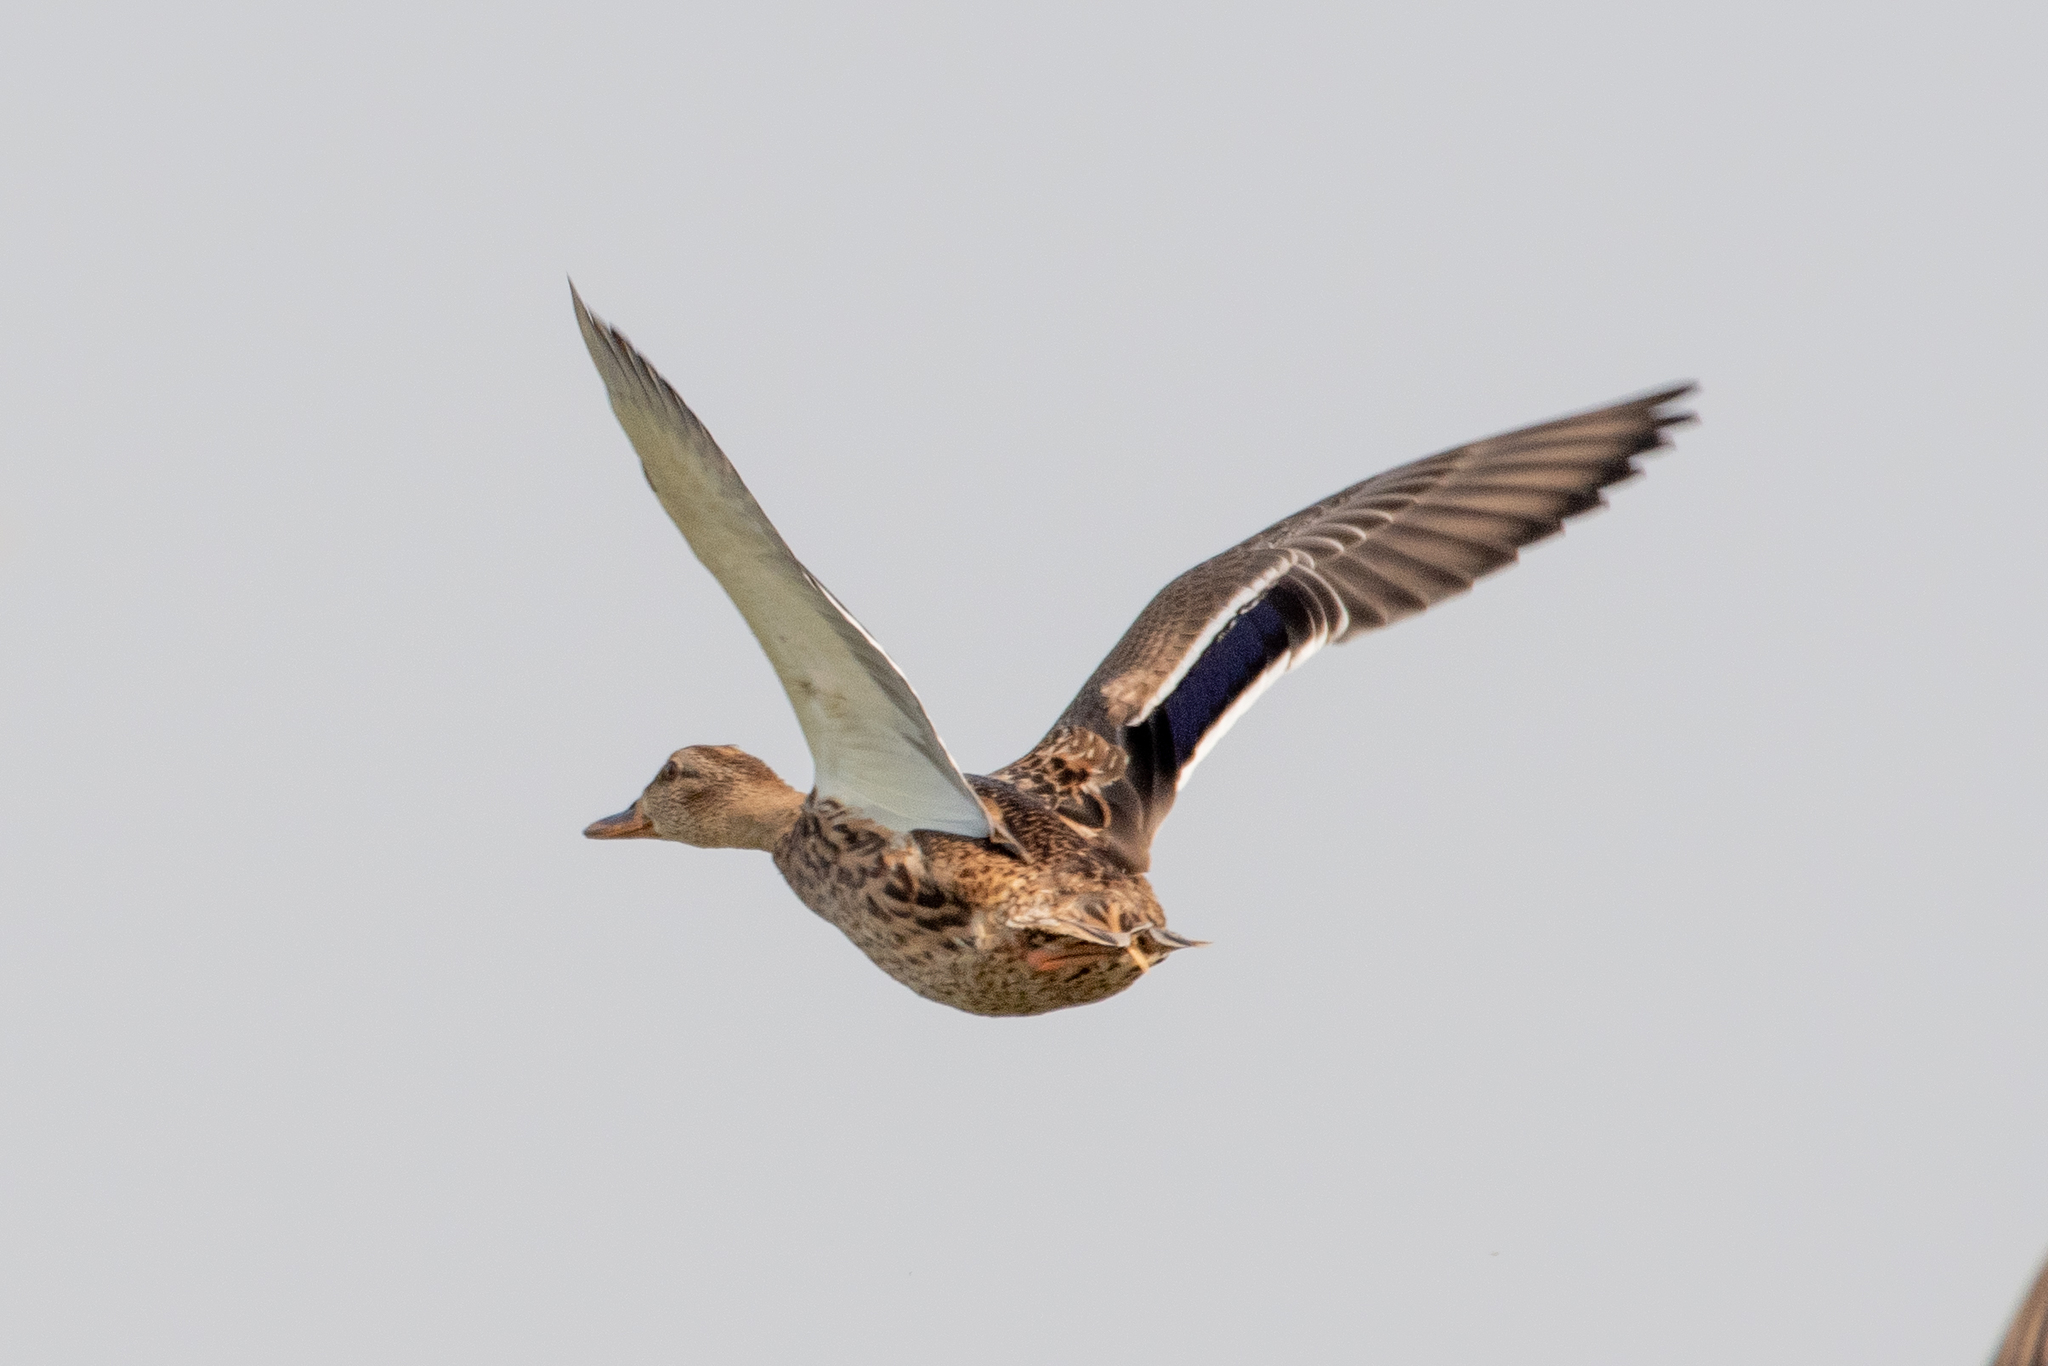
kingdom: Animalia
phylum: Chordata
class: Aves
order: Anseriformes
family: Anatidae
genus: Anas
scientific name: Anas platyrhynchos
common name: Mallard
